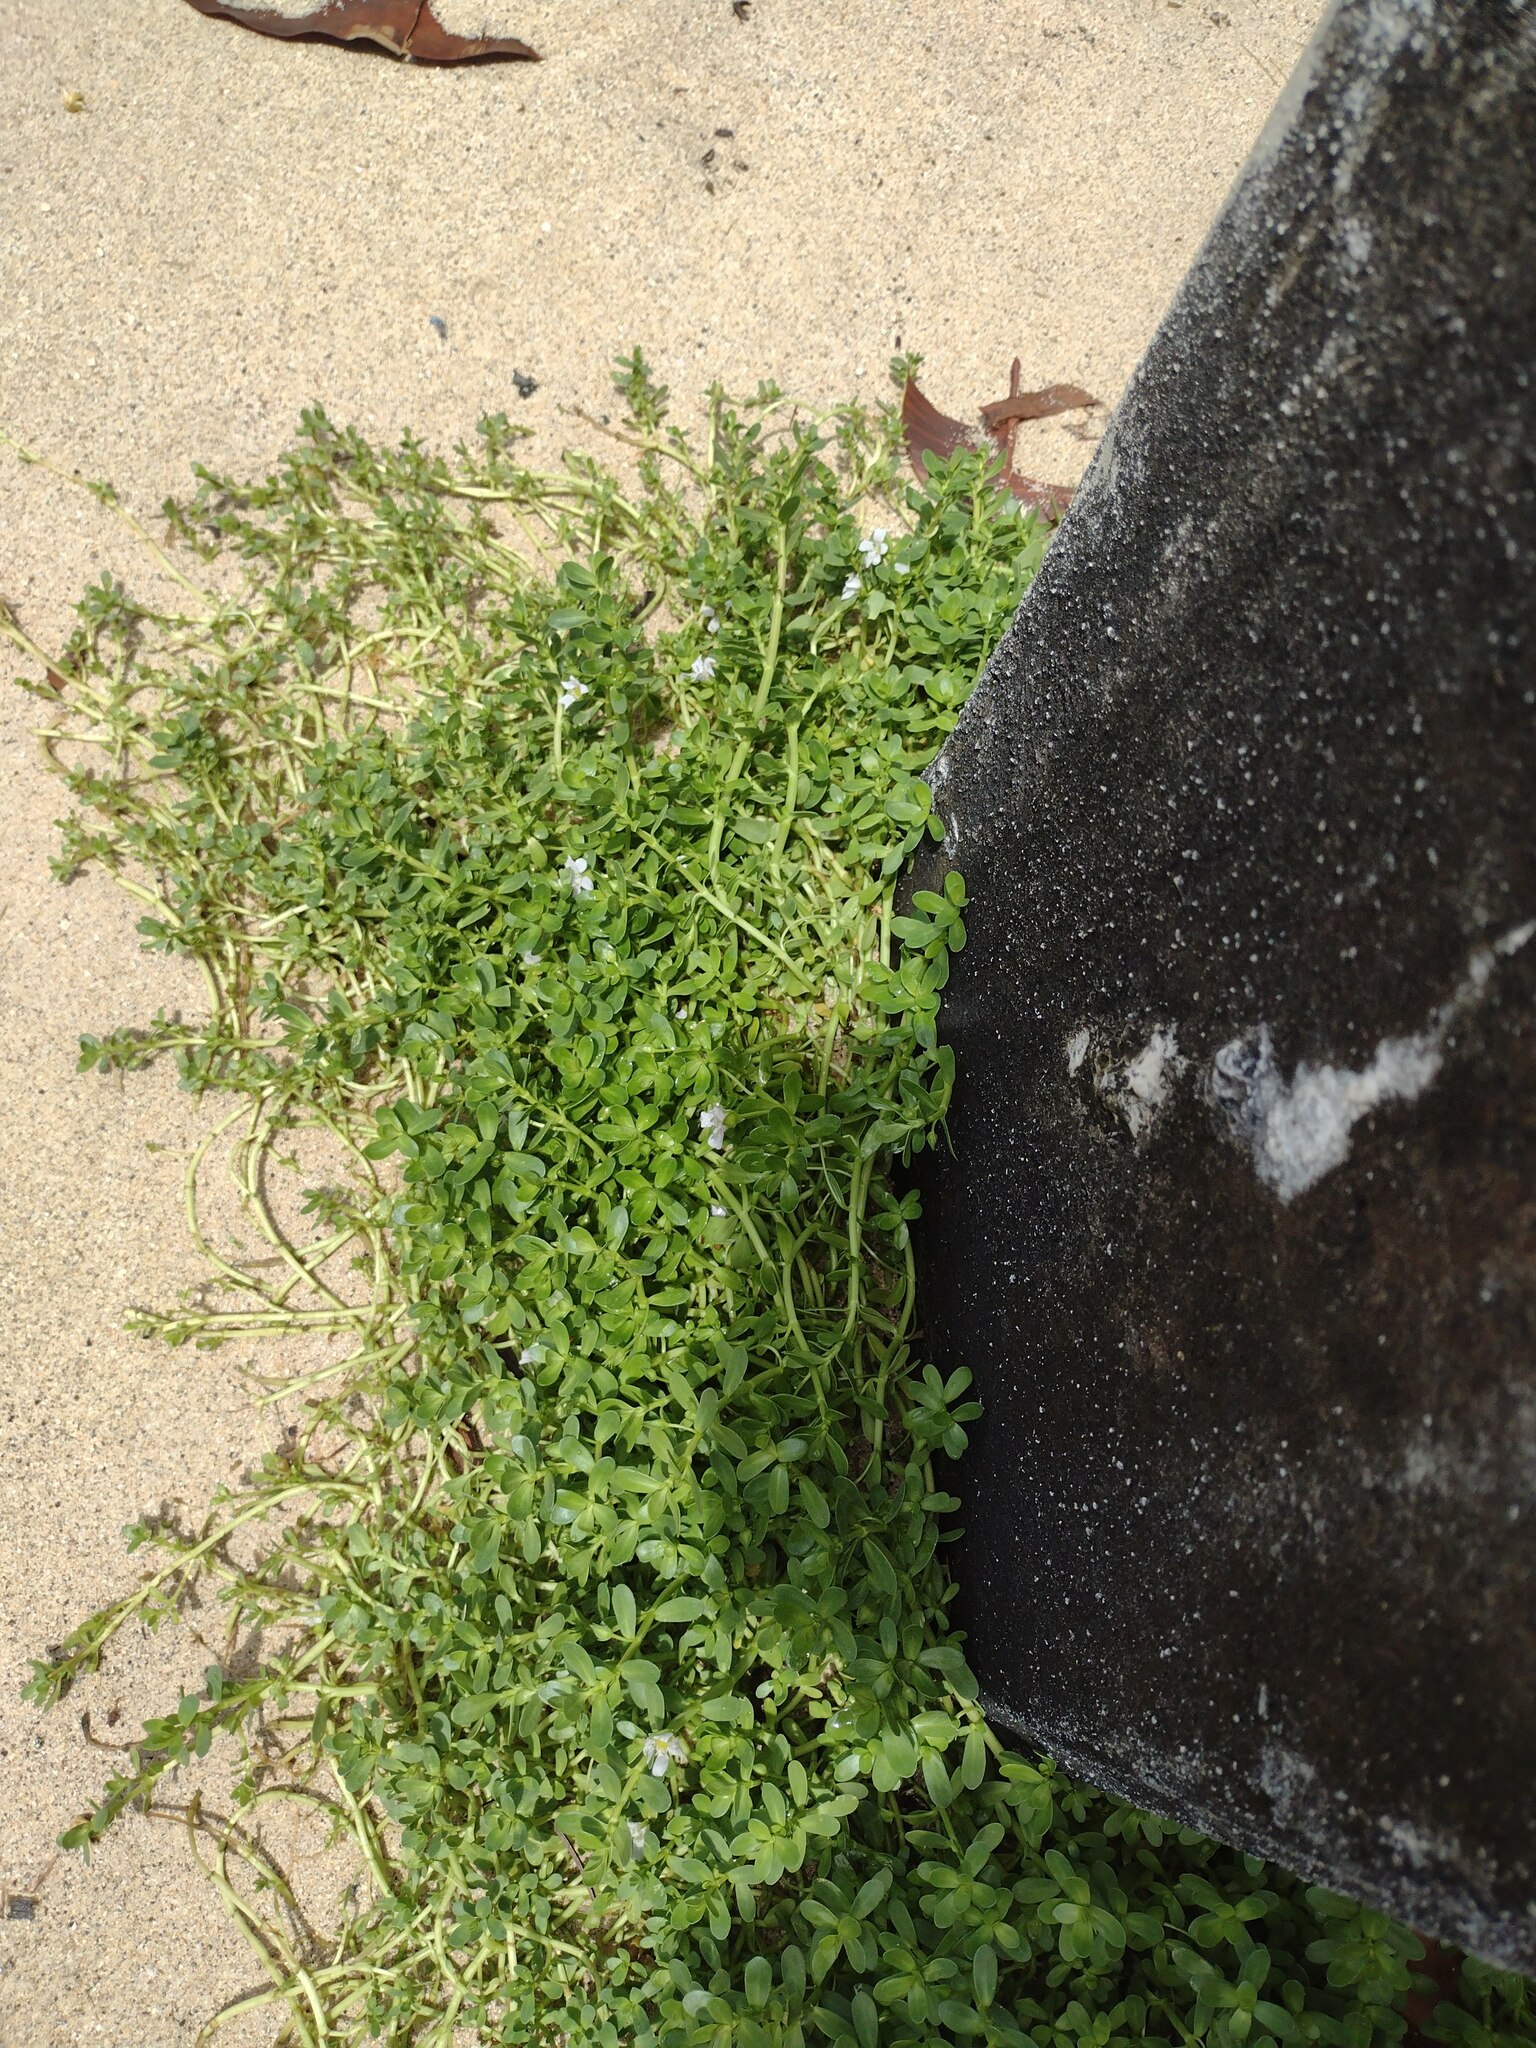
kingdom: Plantae
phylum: Tracheophyta
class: Magnoliopsida
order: Lamiales
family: Plantaginaceae
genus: Bacopa
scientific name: Bacopa monnieri
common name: Indian-pennywort
